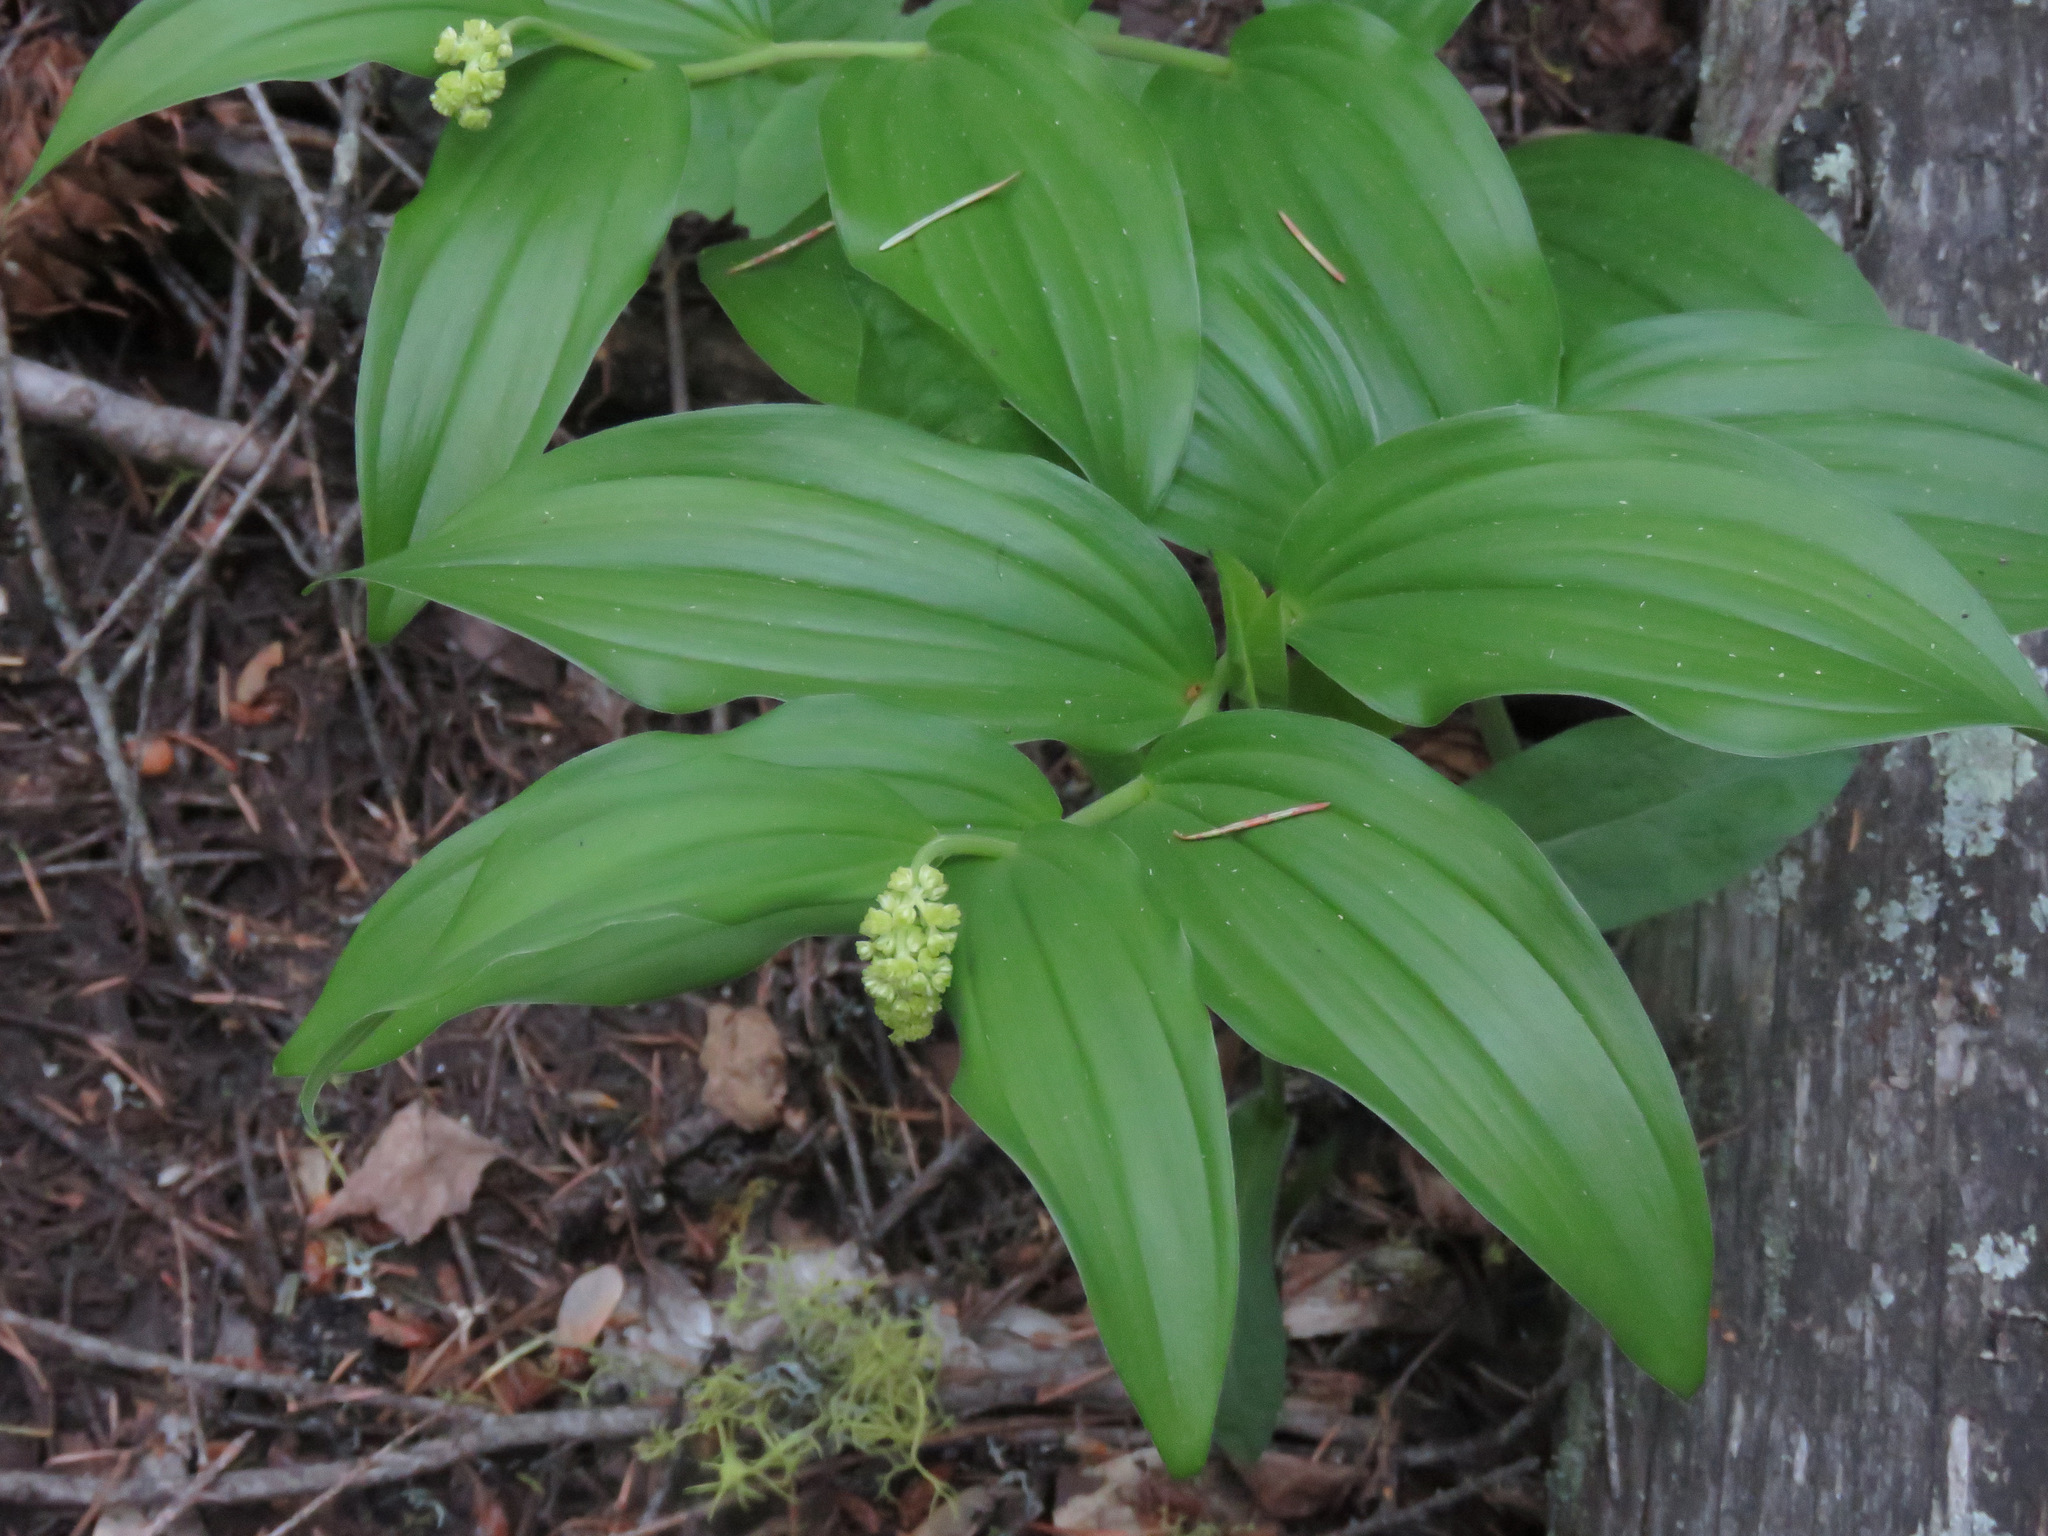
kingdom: Plantae
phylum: Tracheophyta
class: Liliopsida
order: Asparagales
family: Asparagaceae
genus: Maianthemum
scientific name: Maianthemum racemosum
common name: False spikenard
